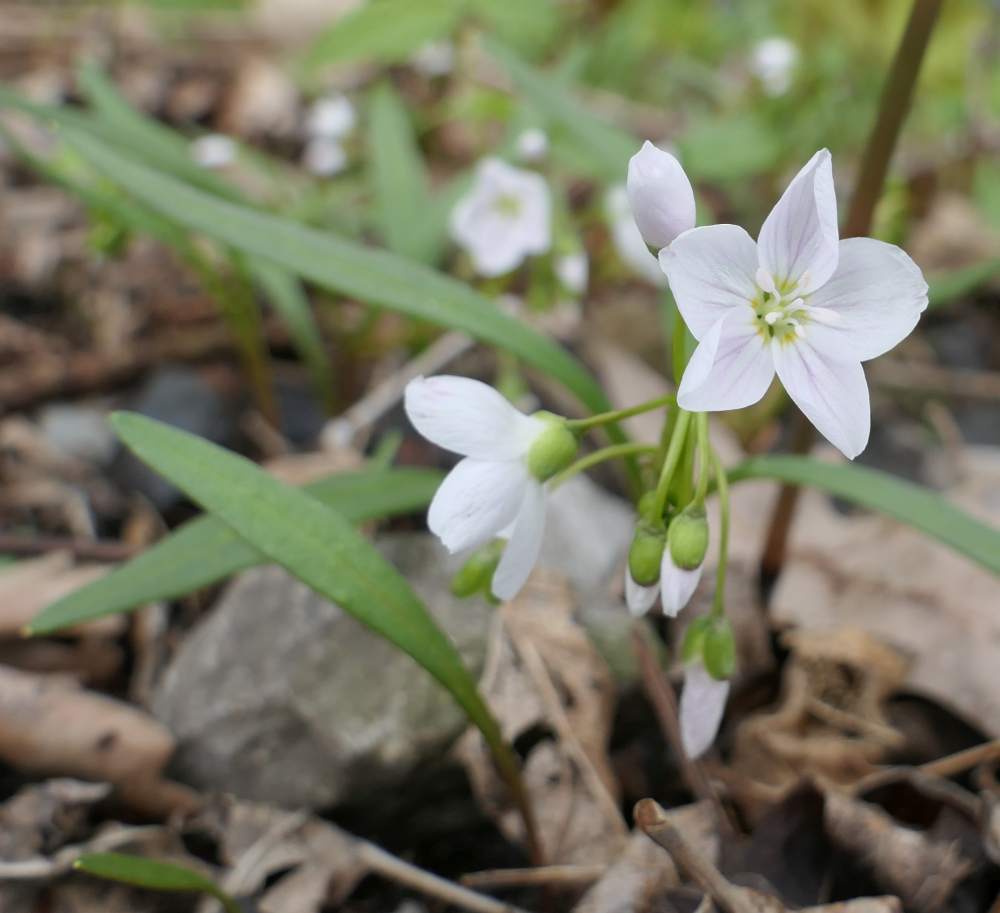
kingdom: Plantae
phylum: Tracheophyta
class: Magnoliopsida
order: Caryophyllales
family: Montiaceae
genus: Claytonia
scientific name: Claytonia virginica
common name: Virginia springbeauty
